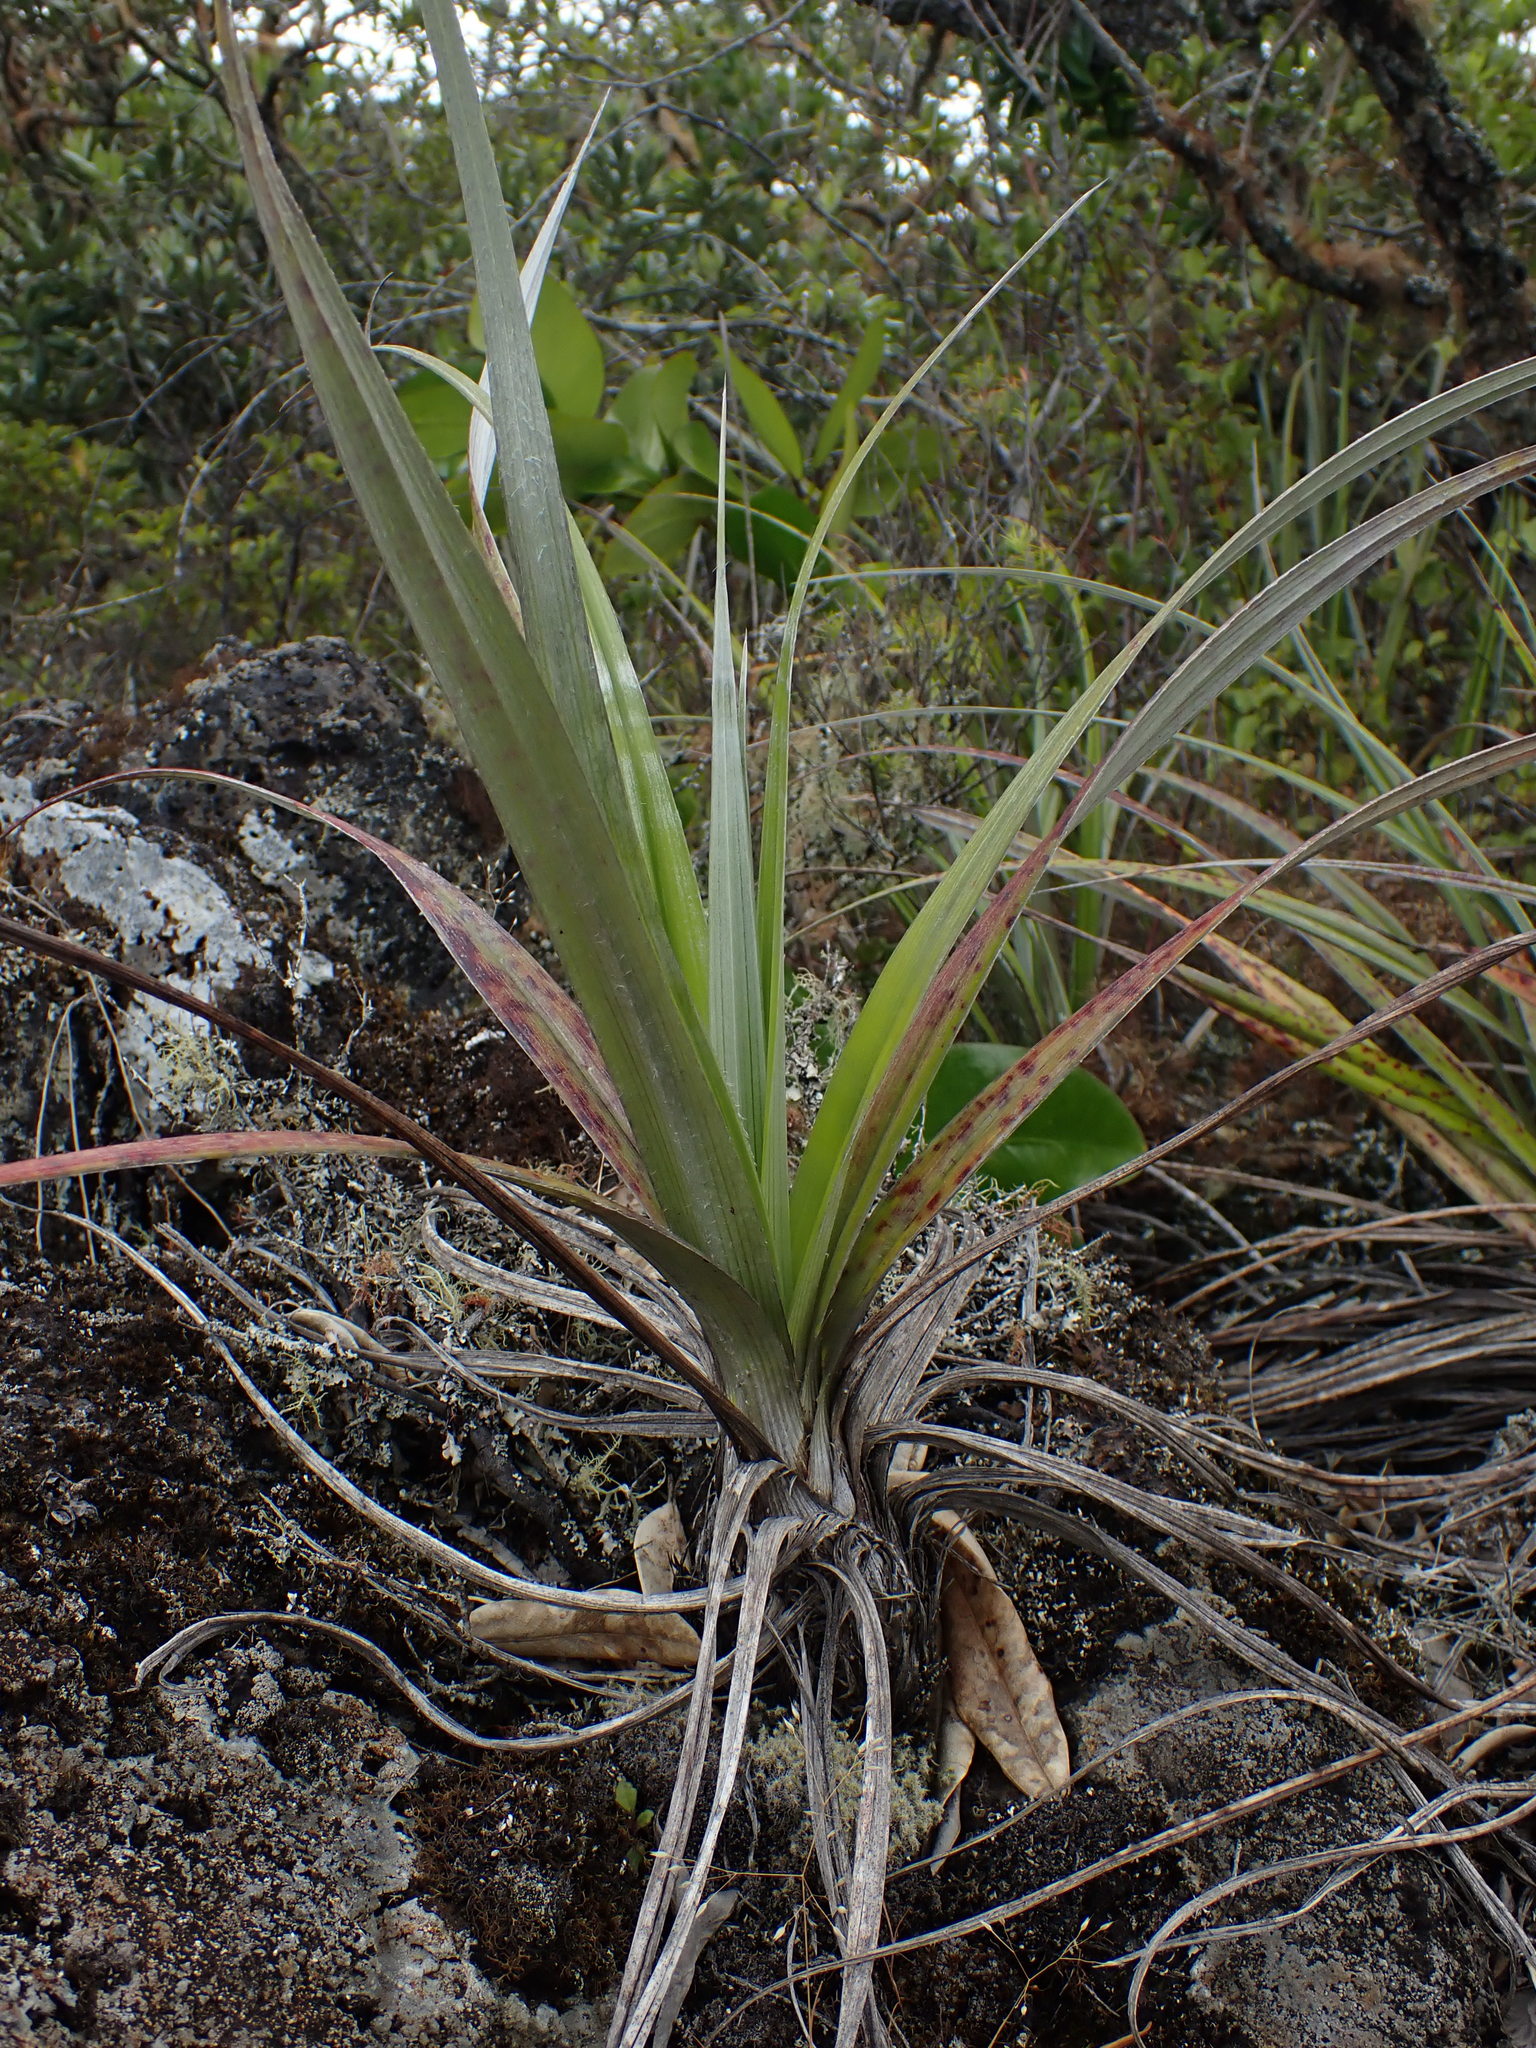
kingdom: Plantae
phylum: Tracheophyta
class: Liliopsida
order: Asparagales
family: Asteliaceae
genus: Astelia
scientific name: Astelia banksii
